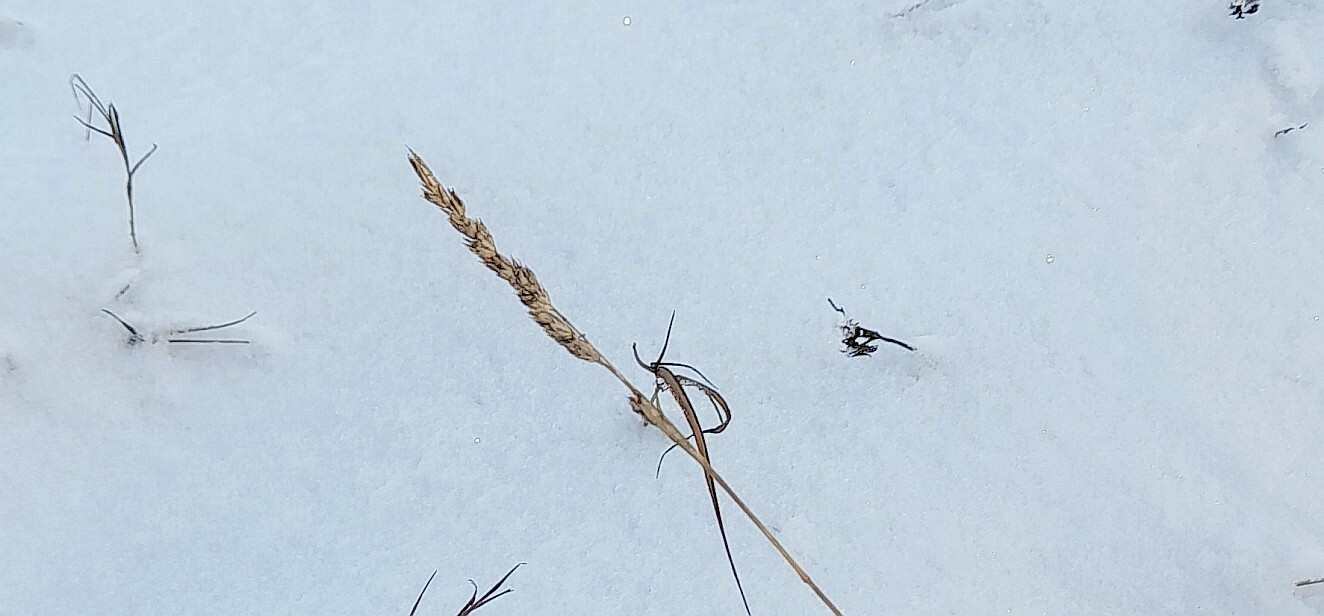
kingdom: Plantae
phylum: Tracheophyta
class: Liliopsida
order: Poales
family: Poaceae
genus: Dactylis
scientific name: Dactylis glomerata
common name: Orchardgrass
